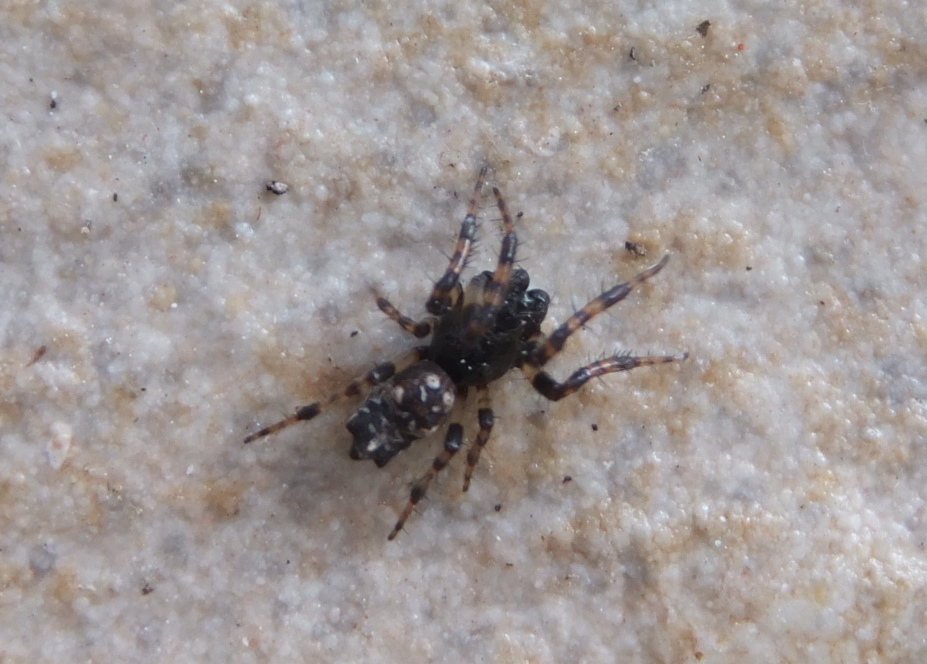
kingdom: Animalia
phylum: Arthropoda
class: Arachnida
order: Araneae
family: Araneidae
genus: Cyclosa
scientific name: Cyclosa oculata
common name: Trashline orbweaver
